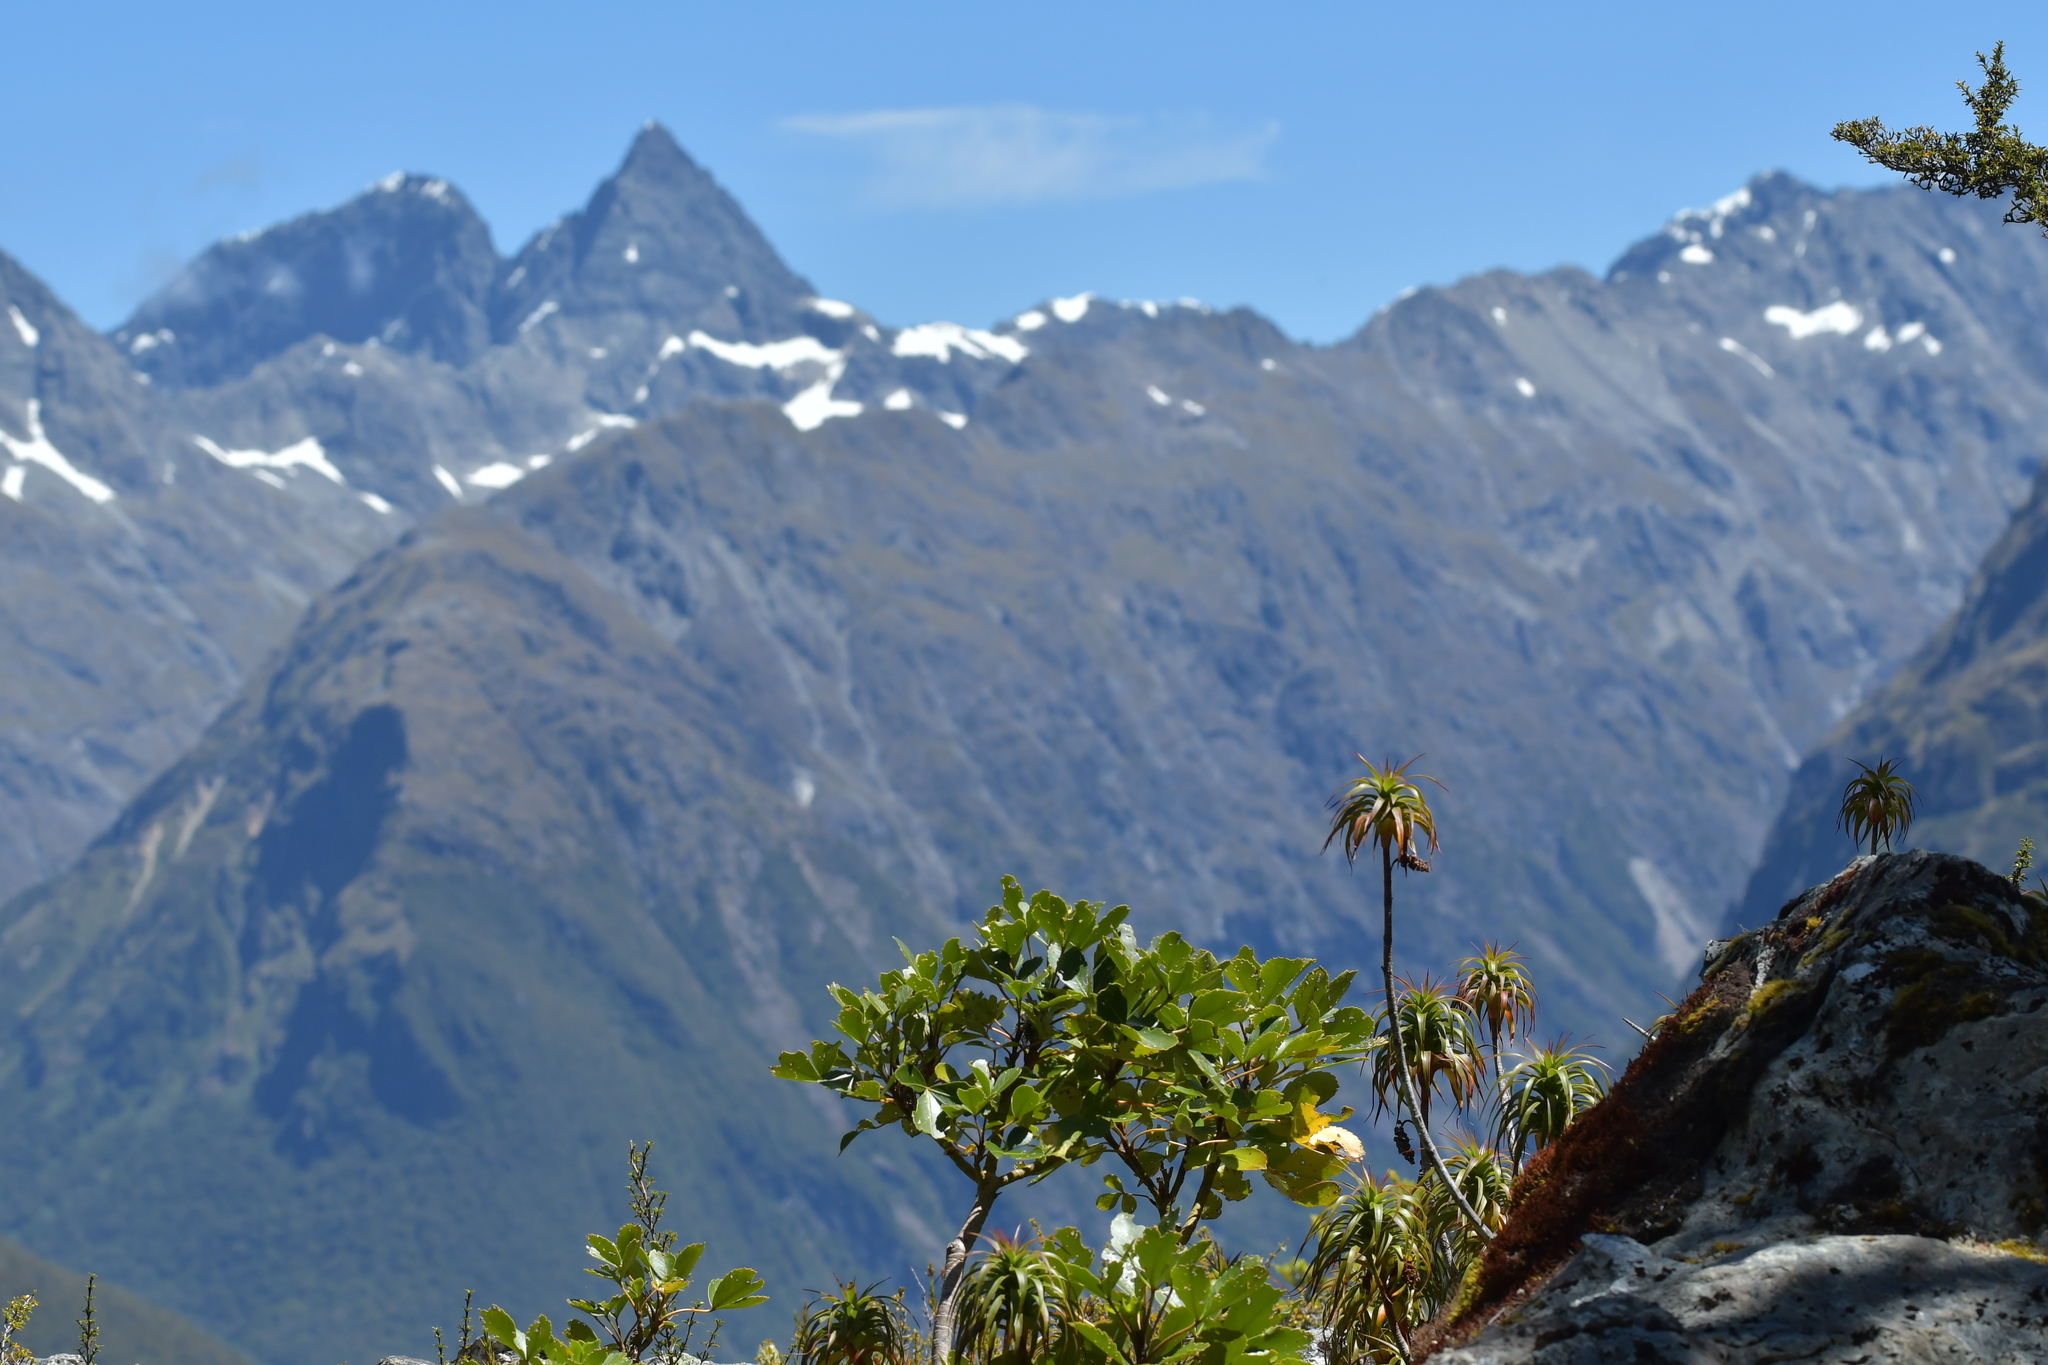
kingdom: Plantae
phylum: Tracheophyta
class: Magnoliopsida
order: Ericales
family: Ericaceae
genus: Dracophyllum
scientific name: Dracophyllum menziesii
